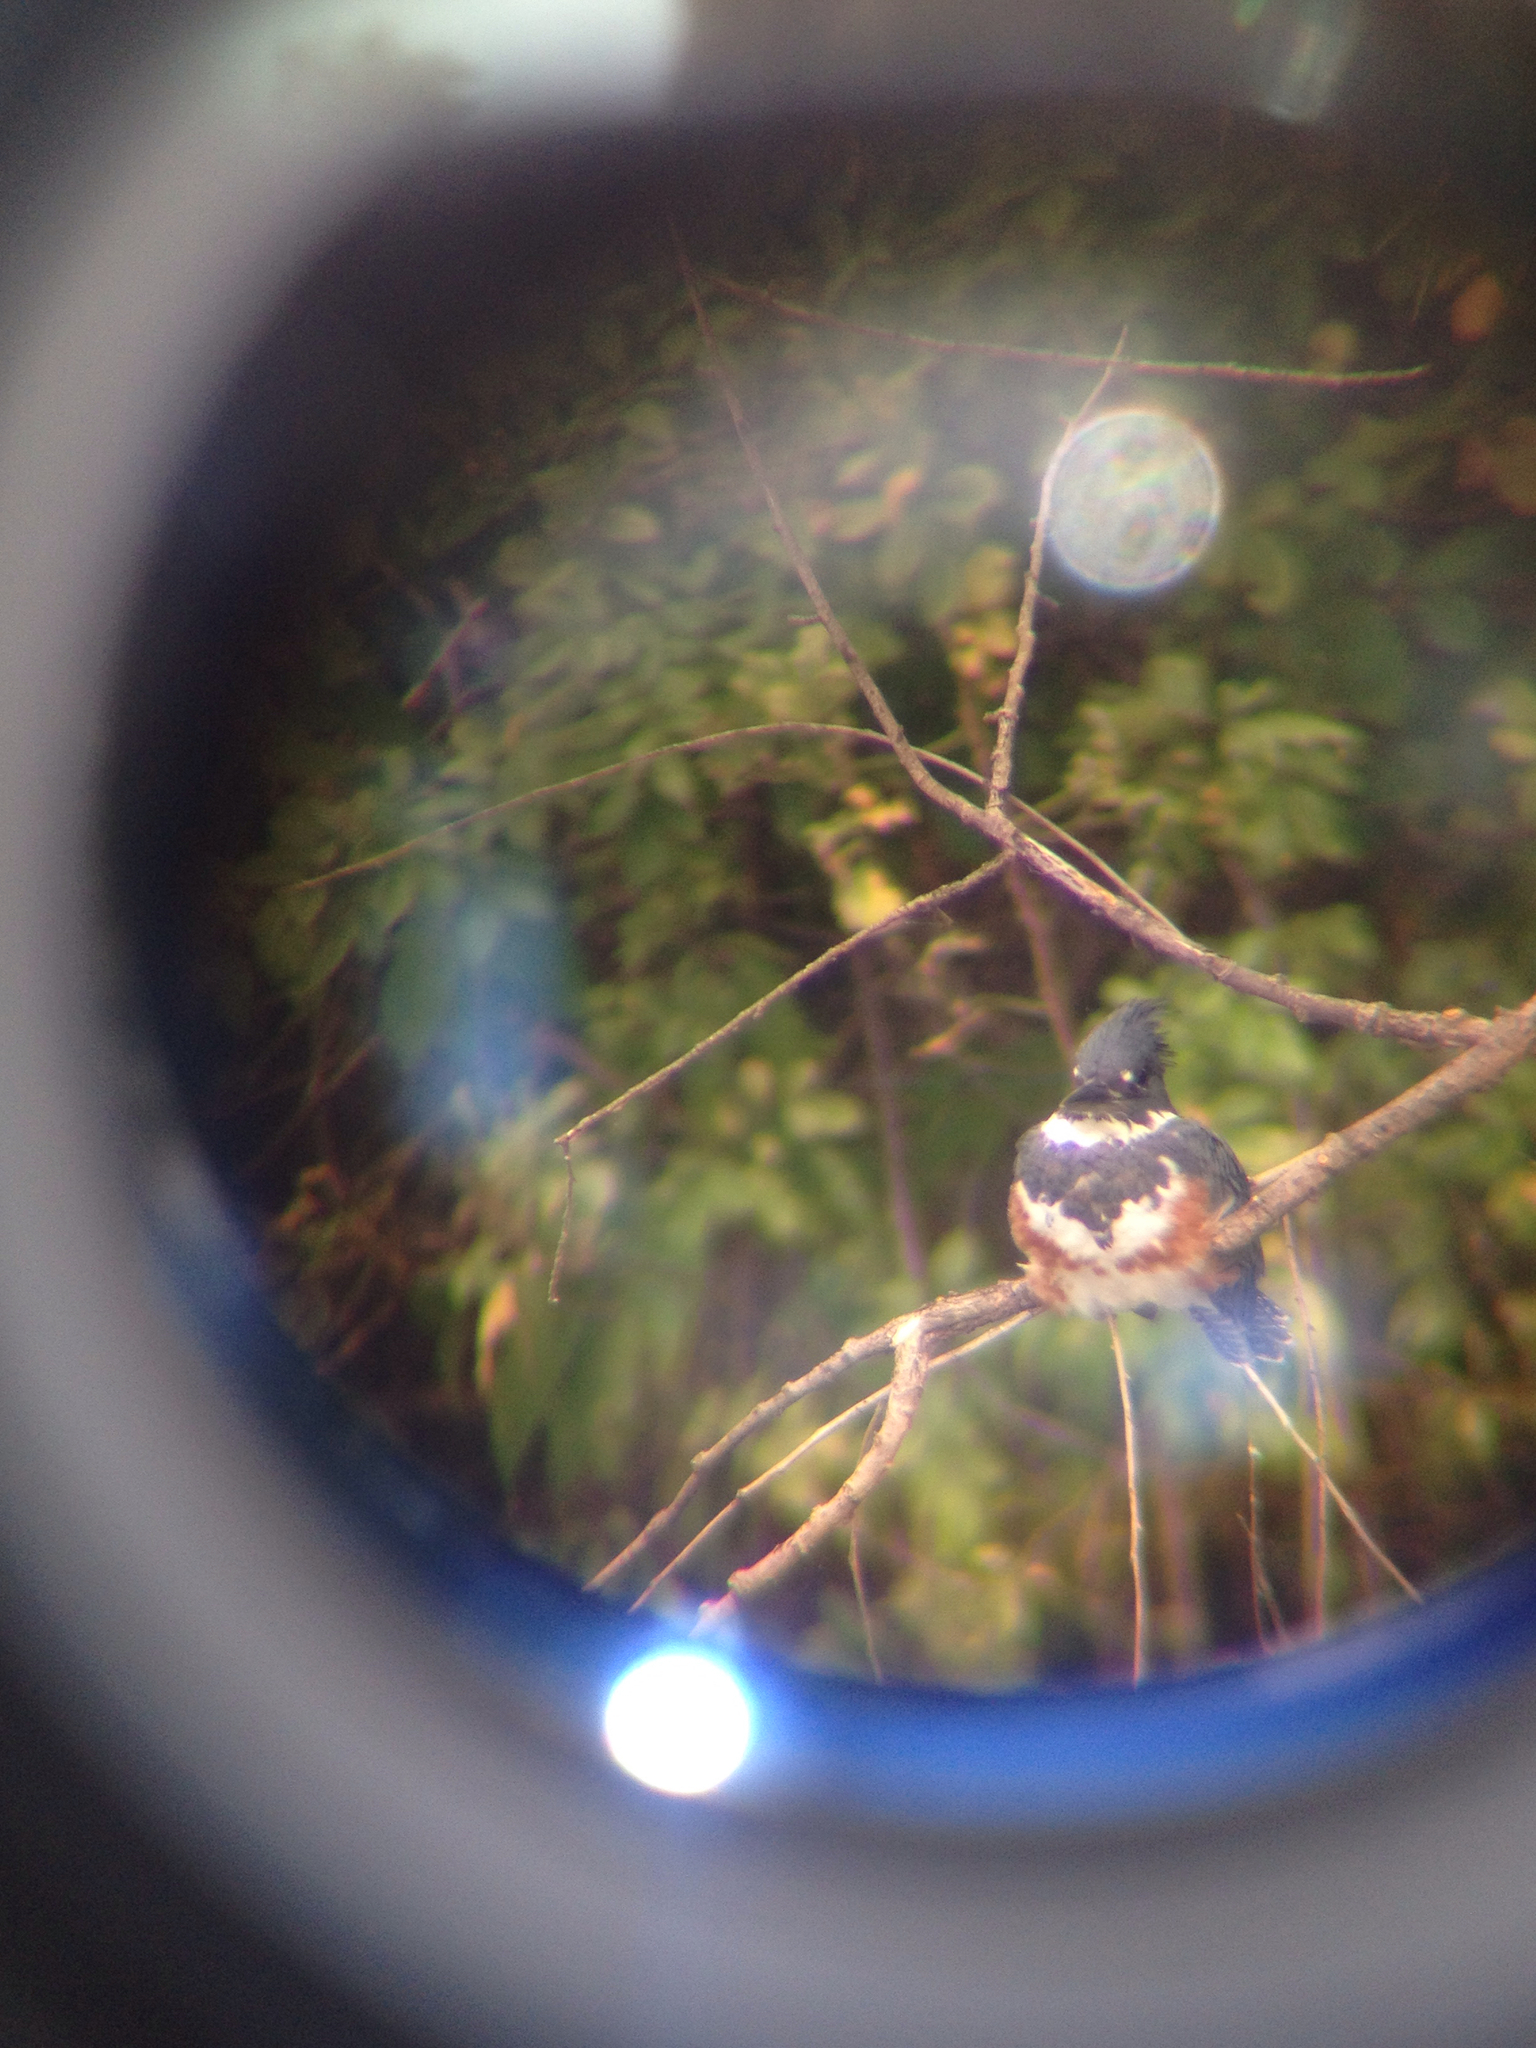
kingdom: Animalia
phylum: Chordata
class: Aves
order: Coraciiformes
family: Alcedinidae
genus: Megaceryle
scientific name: Megaceryle alcyon
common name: Belted kingfisher
